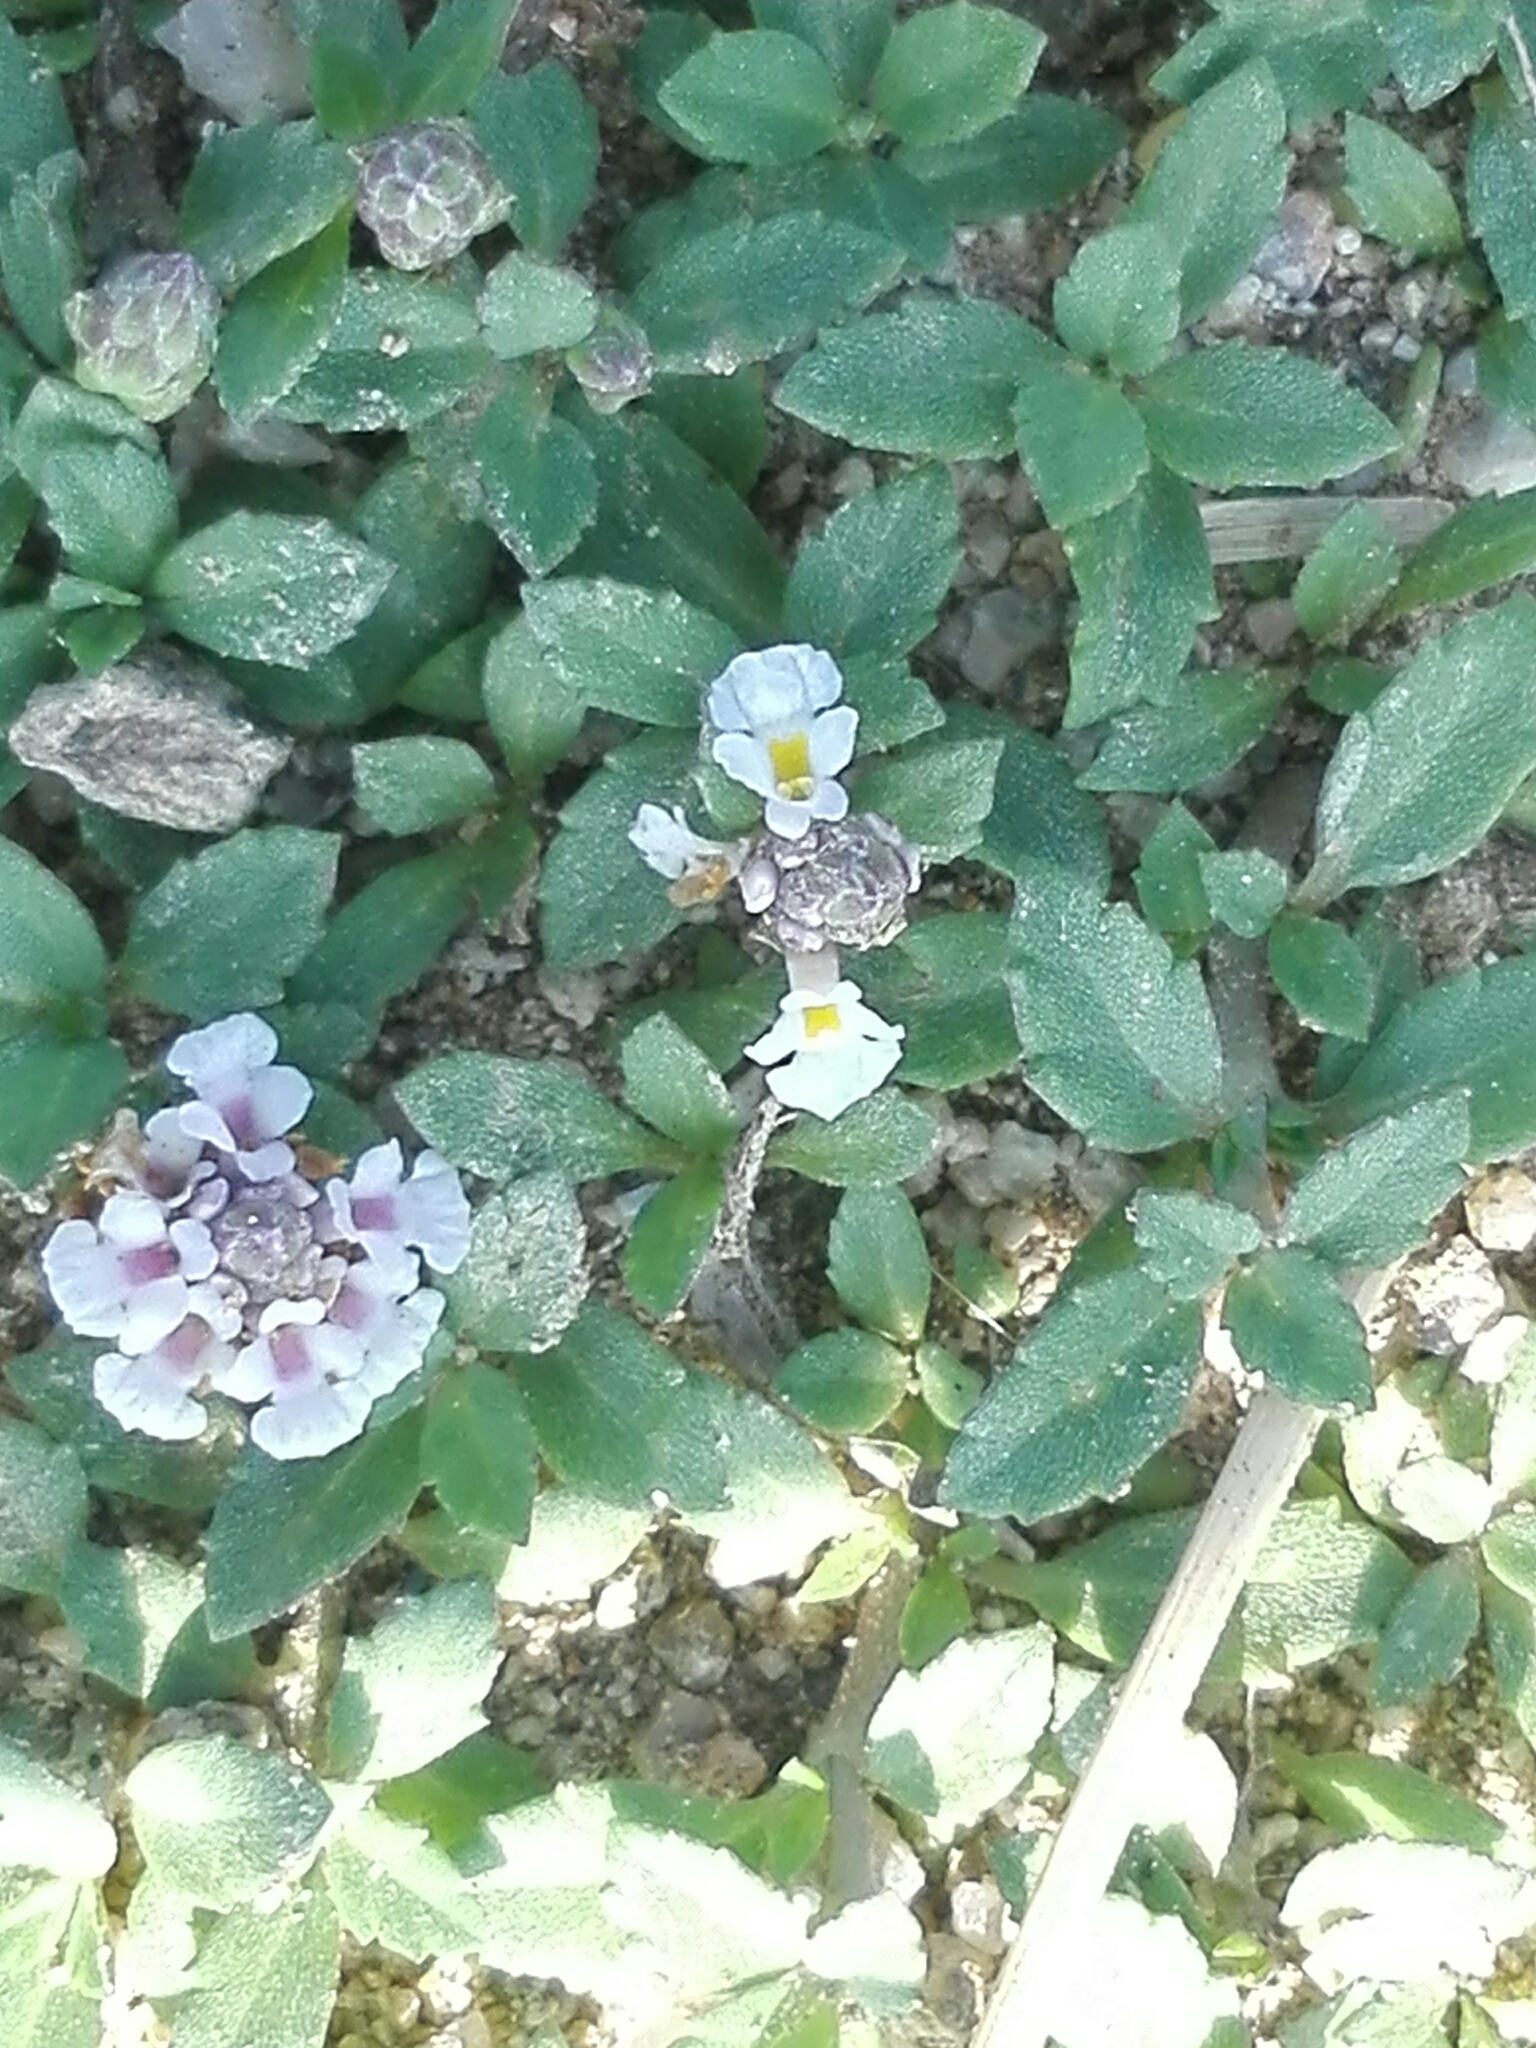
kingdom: Plantae
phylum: Tracheophyta
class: Magnoliopsida
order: Lamiales
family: Verbenaceae
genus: Phyla
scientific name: Phyla nodiflora
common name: Frogfruit
